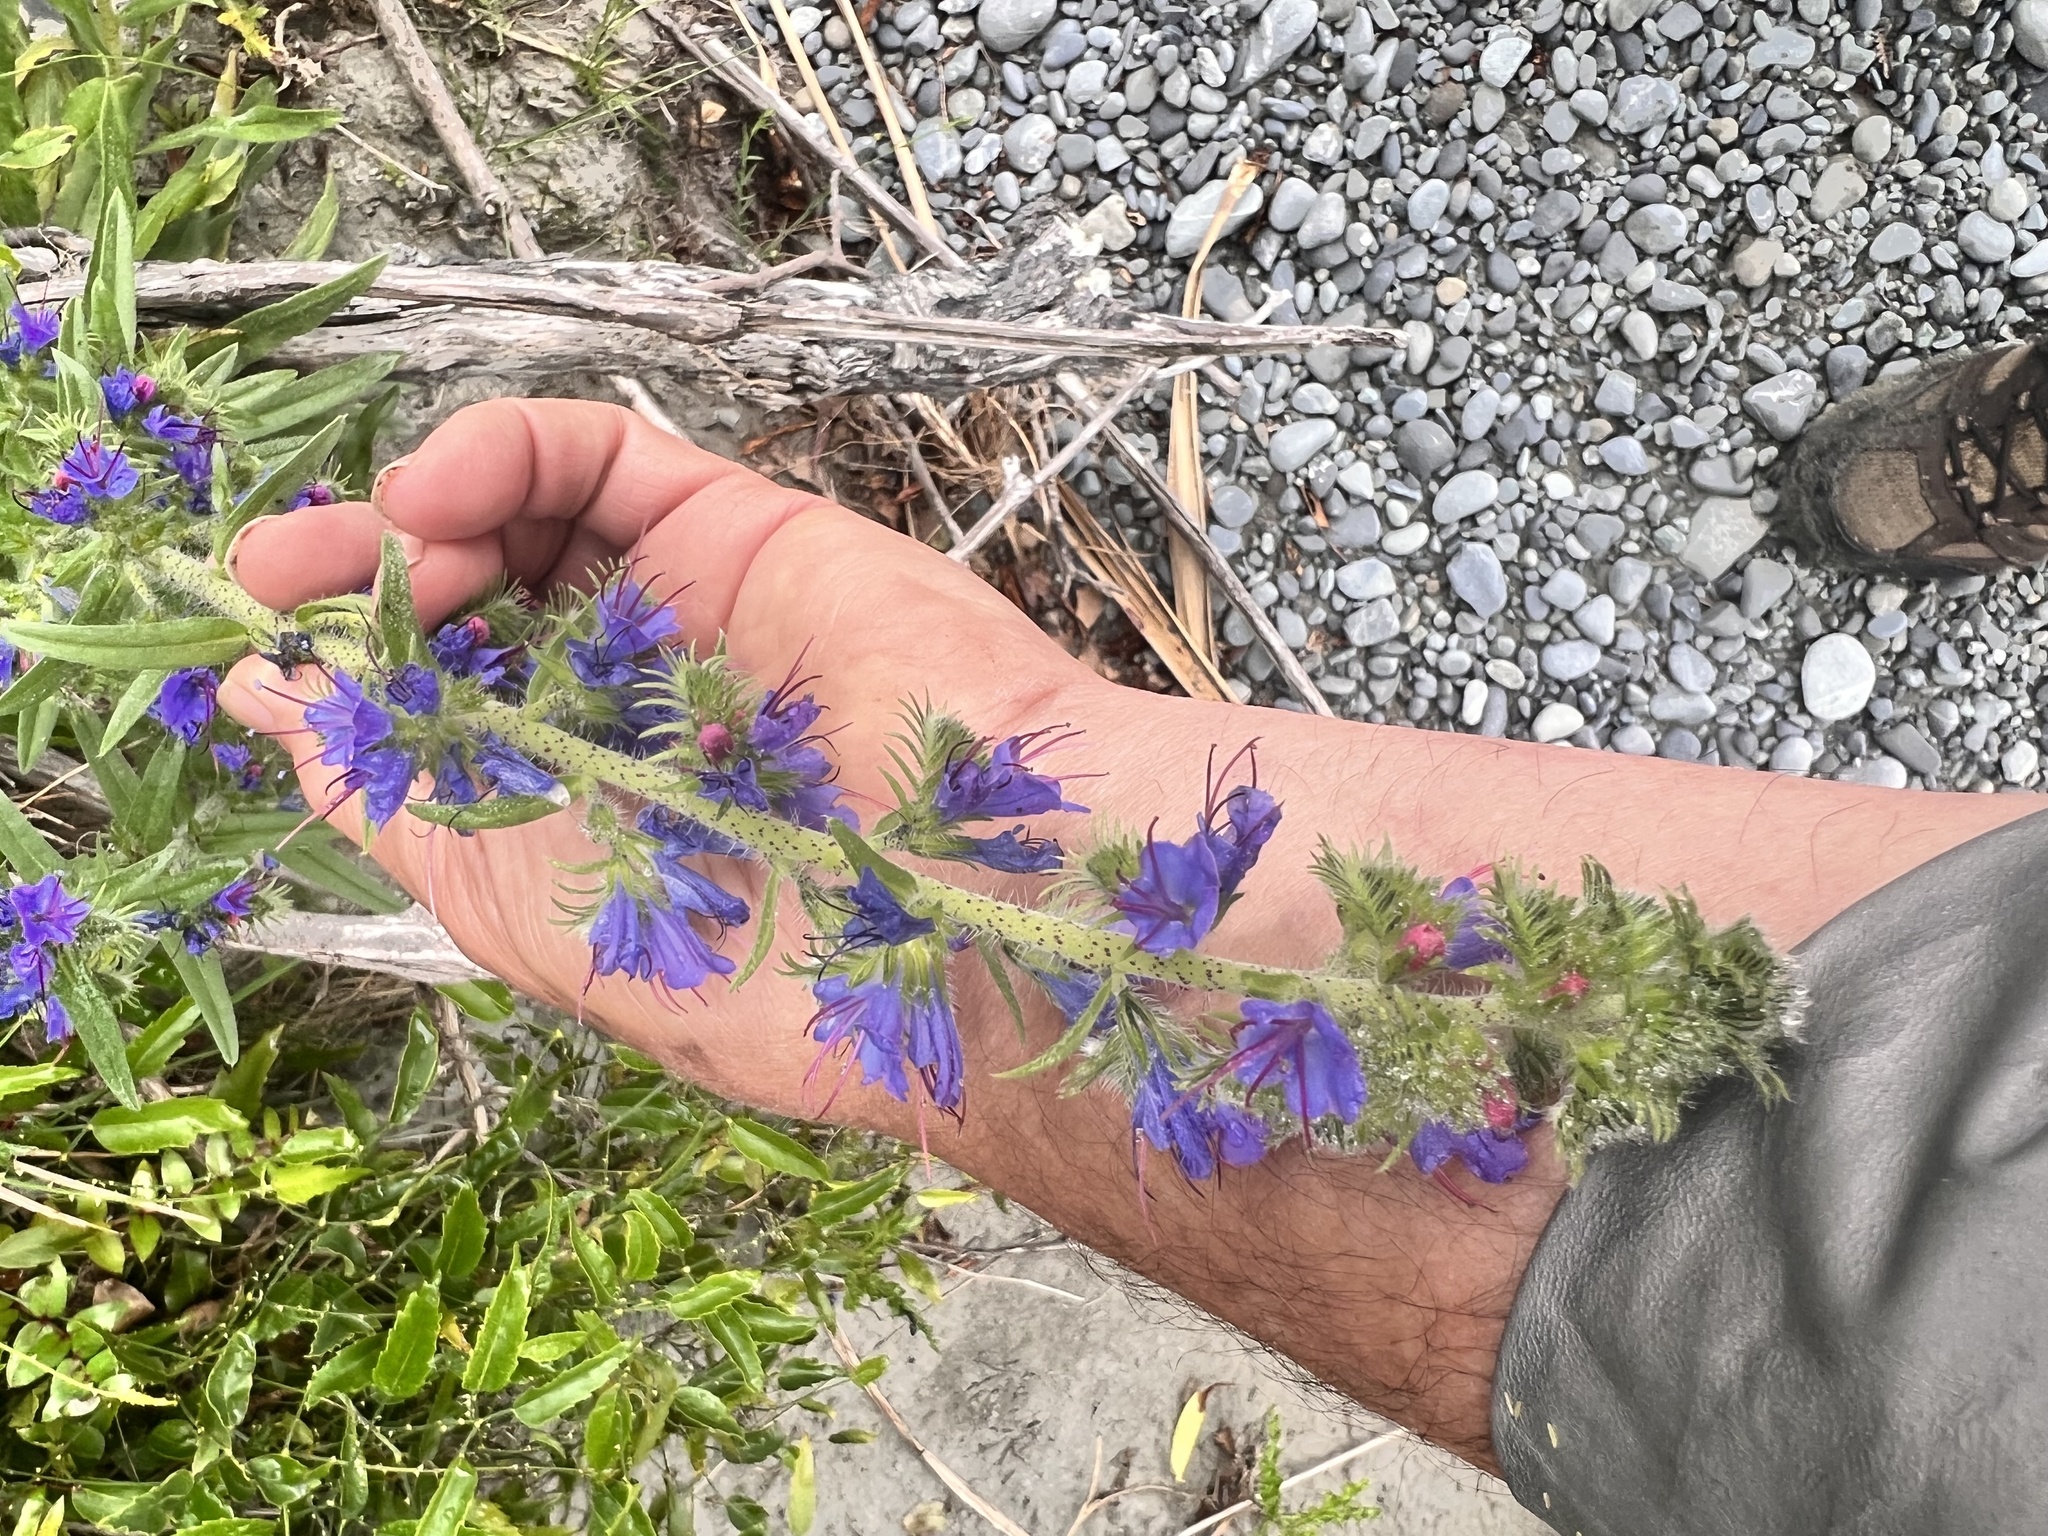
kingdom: Plantae
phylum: Tracheophyta
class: Magnoliopsida
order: Boraginales
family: Boraginaceae
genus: Echium
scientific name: Echium vulgare
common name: Common viper's bugloss
